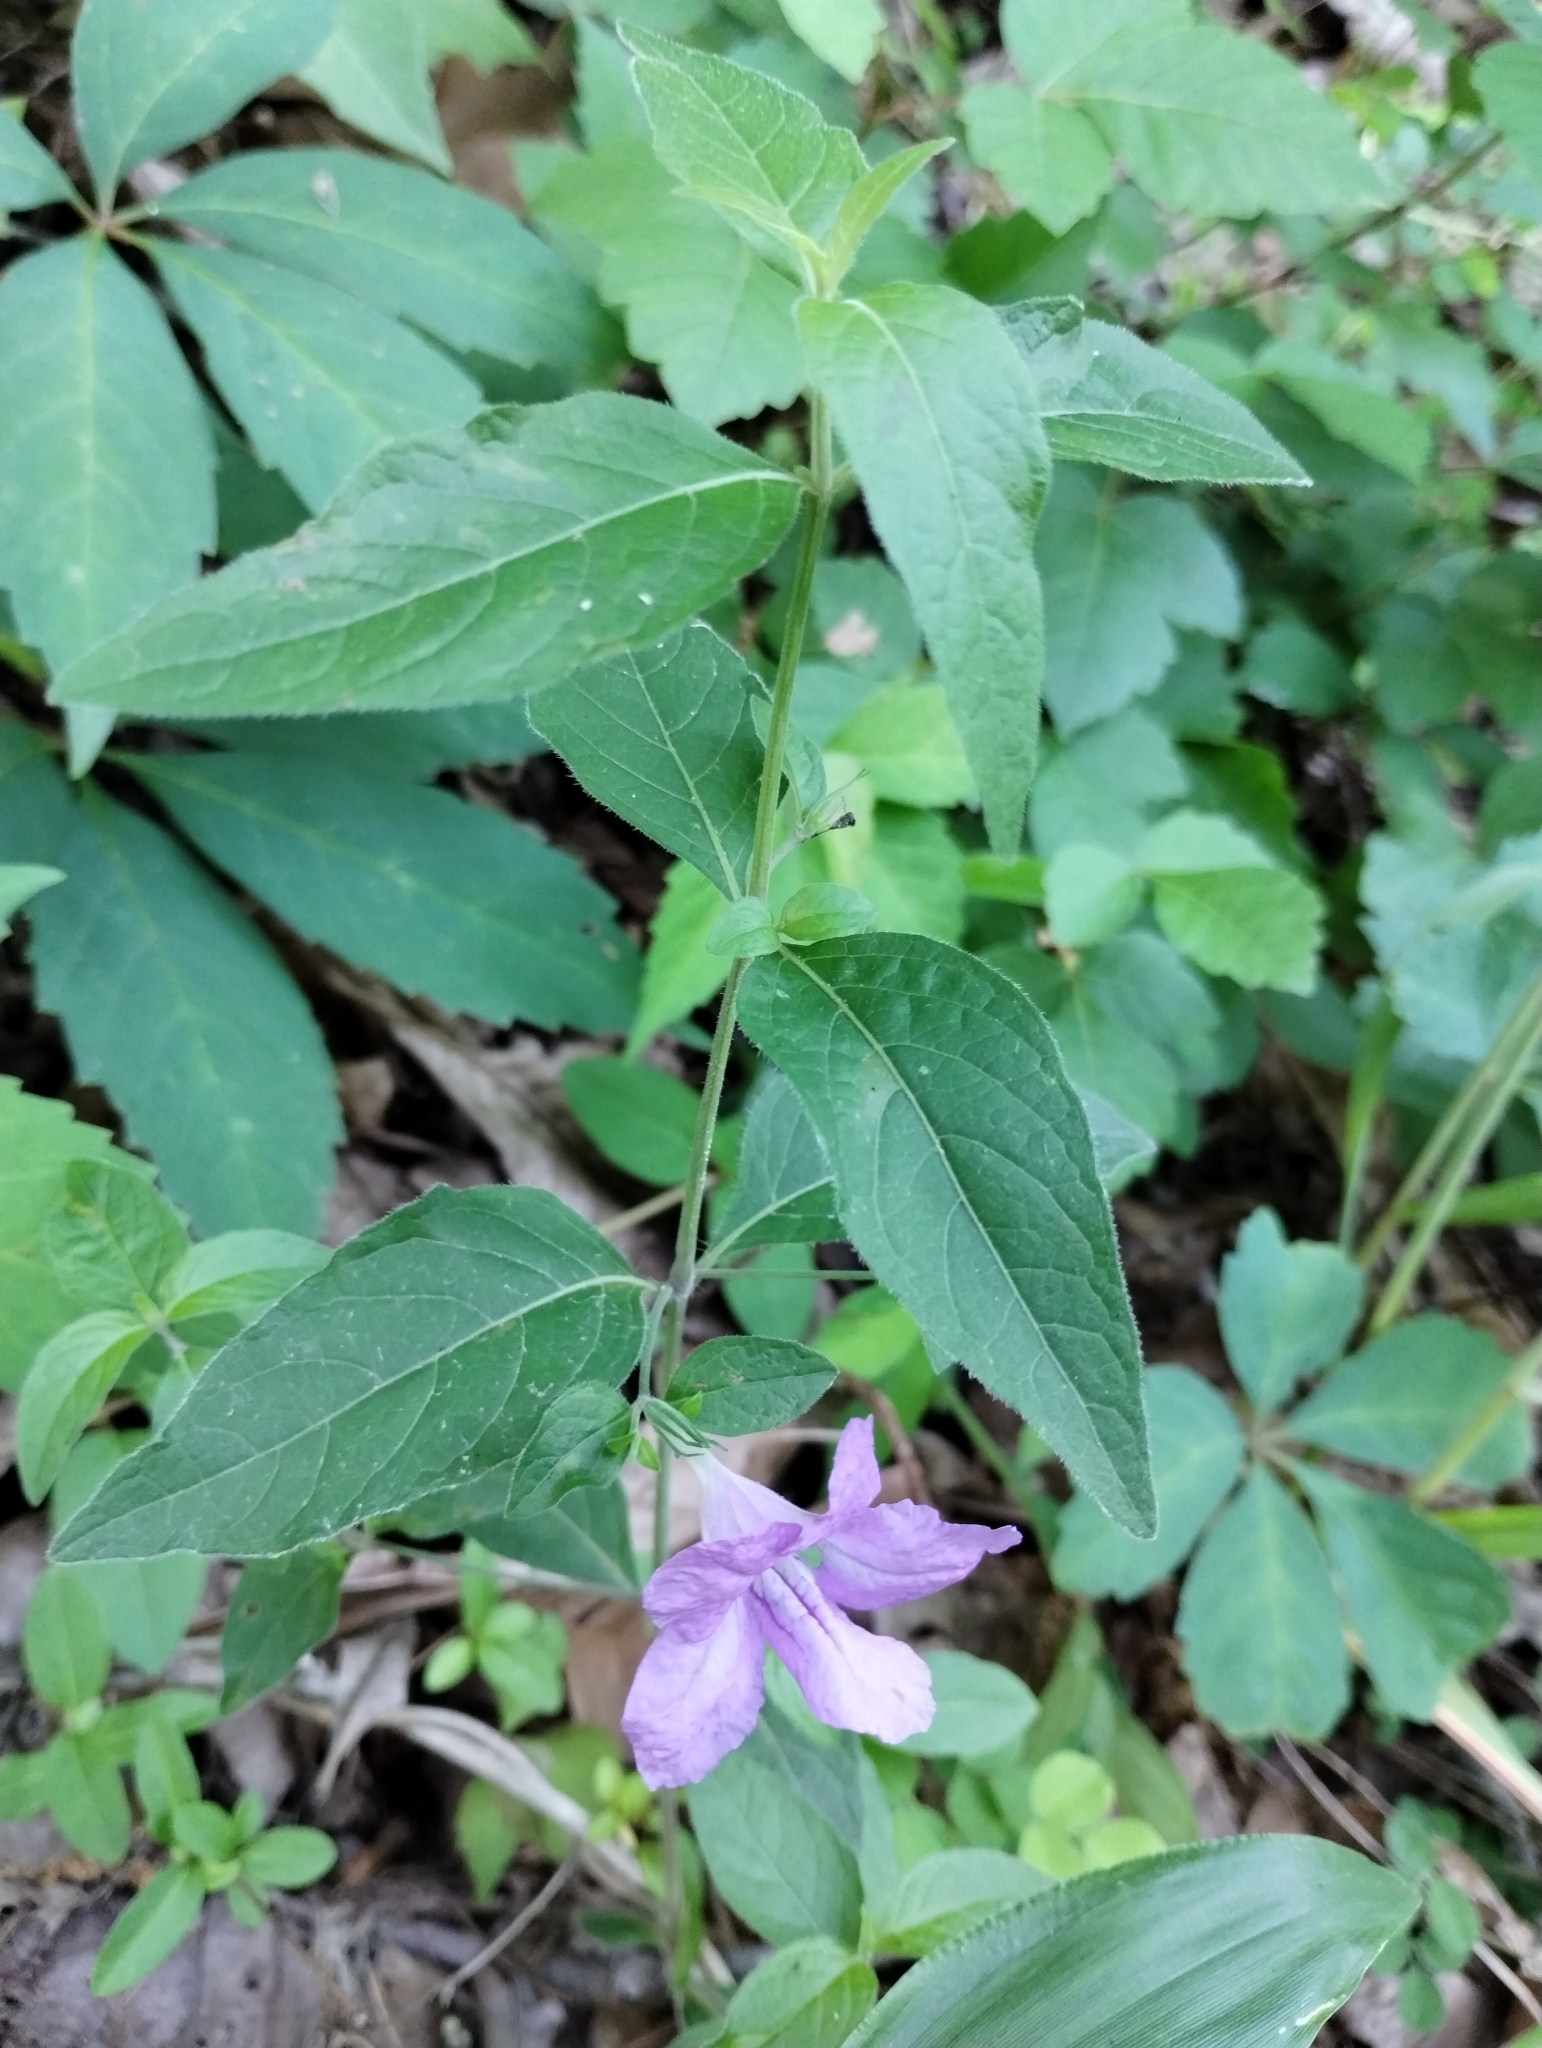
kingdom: Plantae
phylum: Tracheophyta
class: Magnoliopsida
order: Lamiales
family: Acanthaceae
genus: Ruellia
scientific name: Ruellia pedunculata
